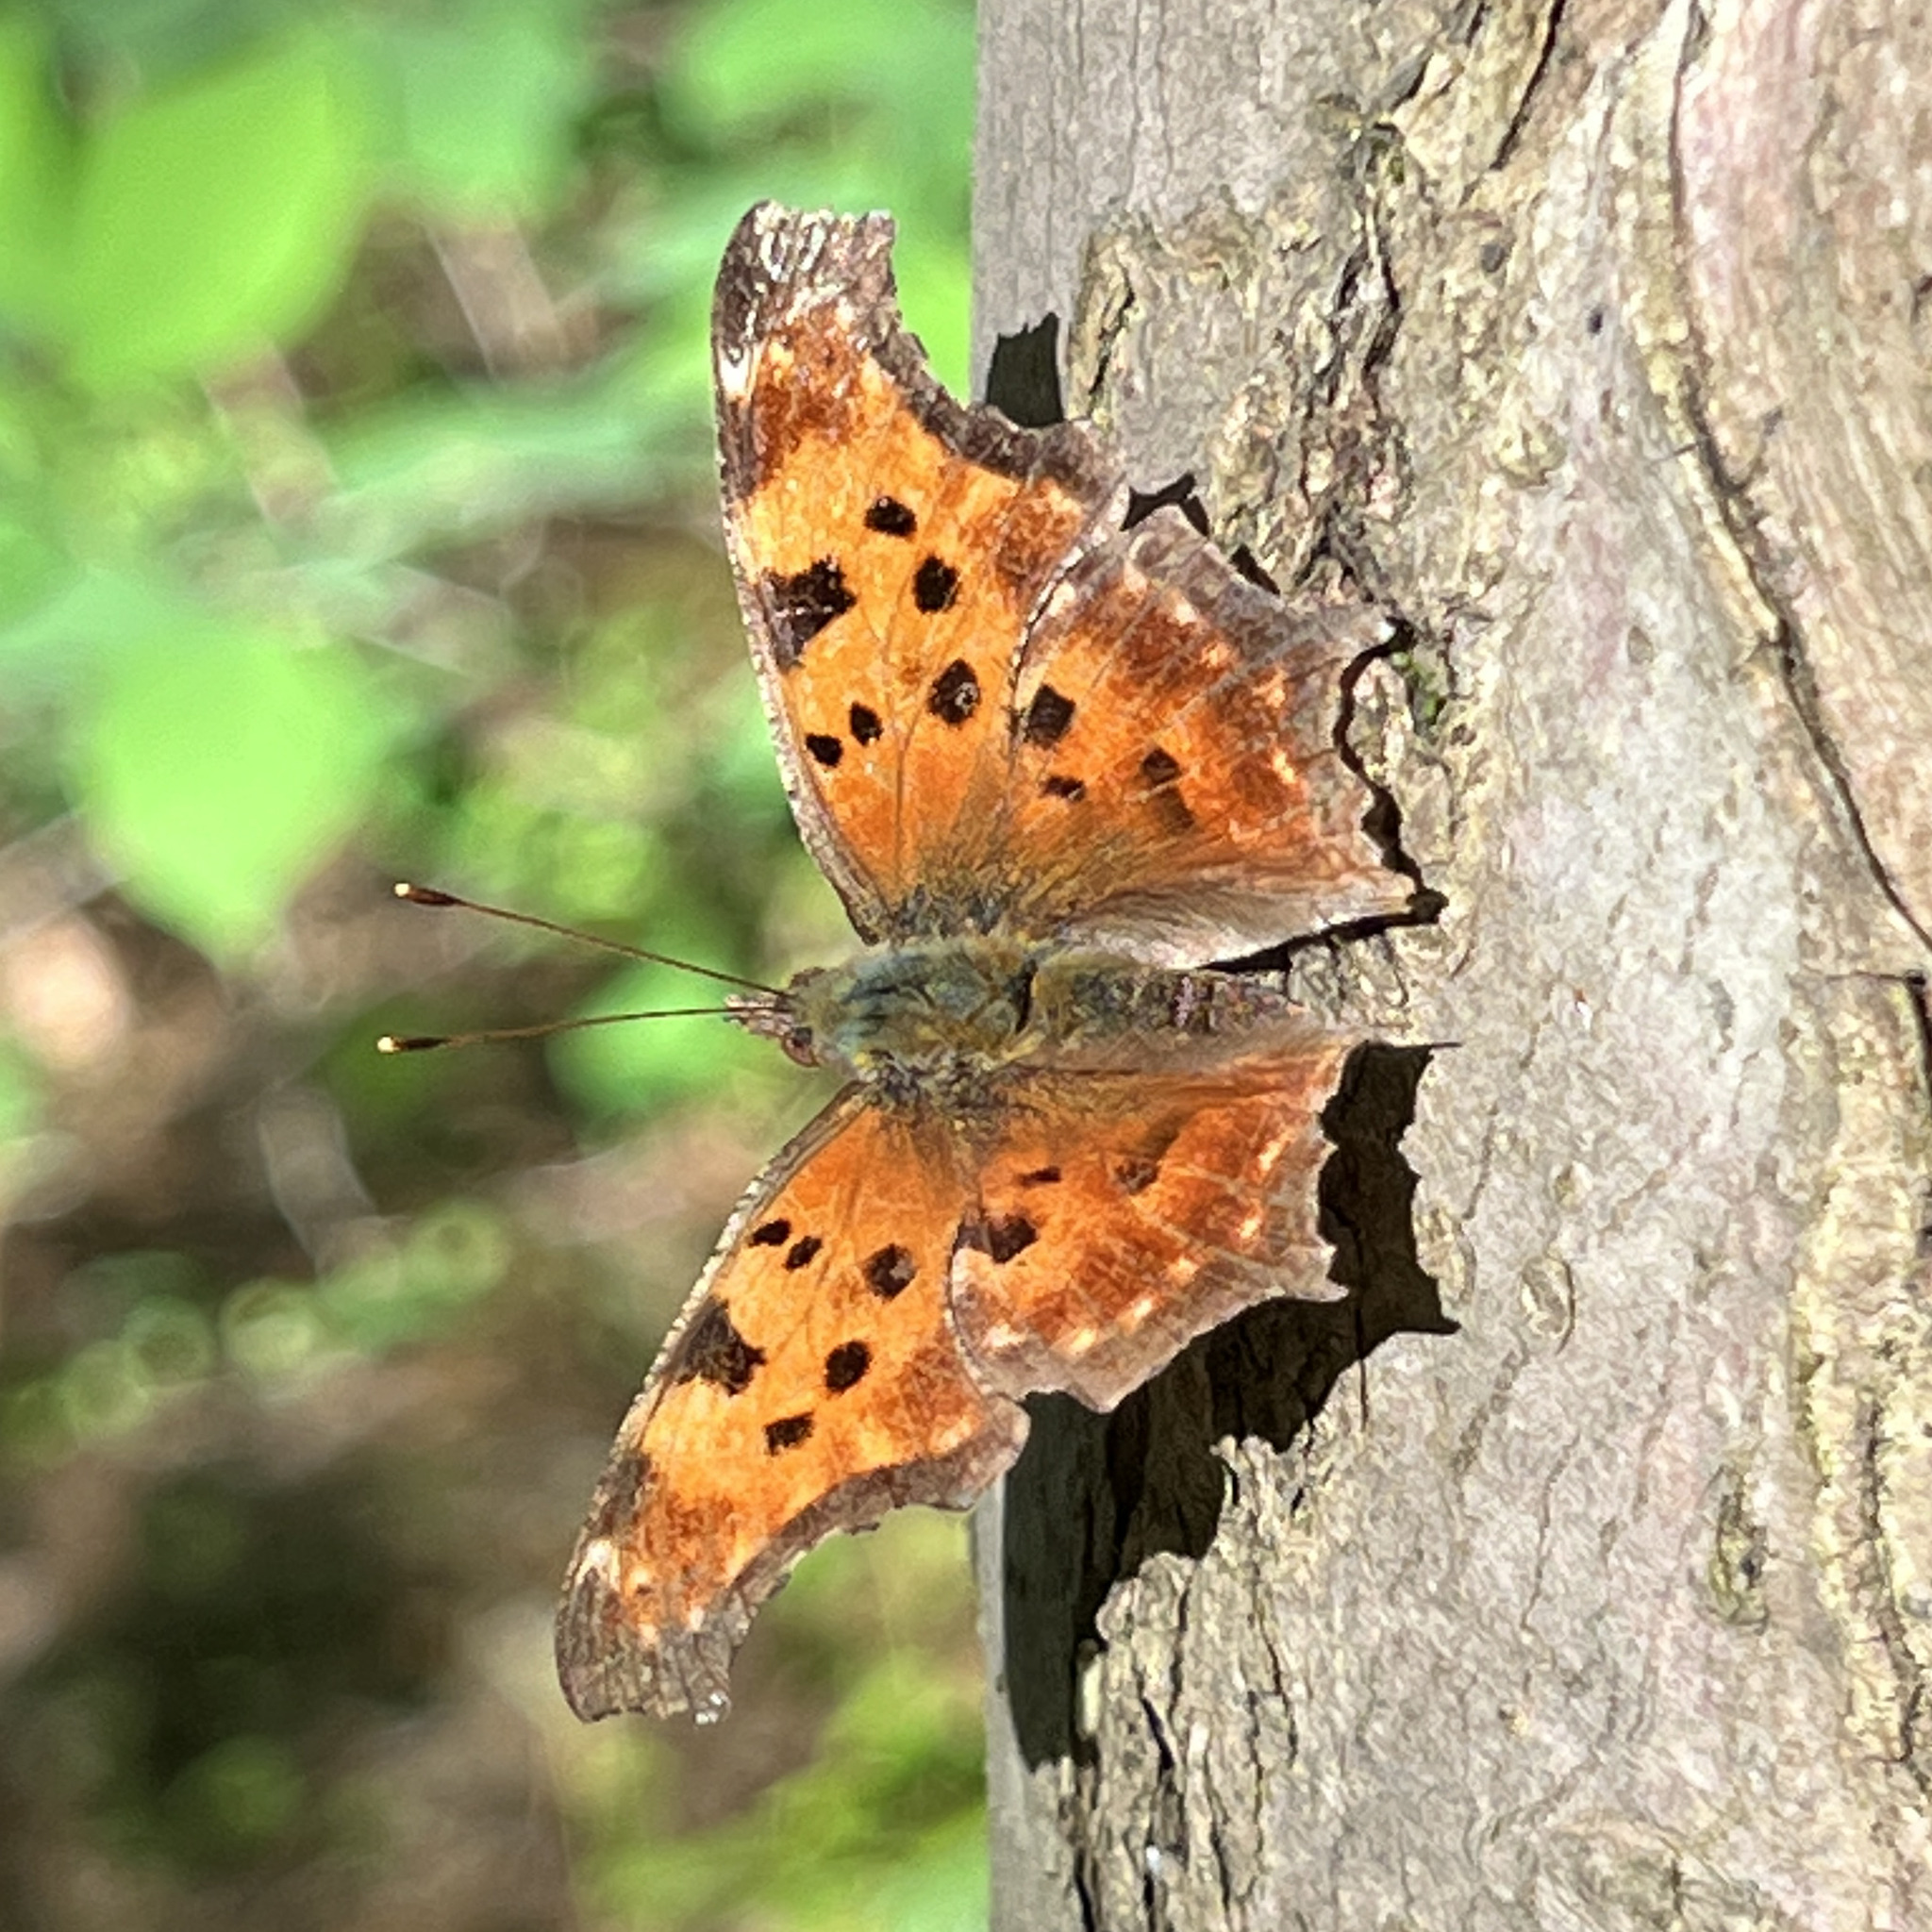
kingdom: Animalia
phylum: Arthropoda
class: Insecta
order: Lepidoptera
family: Nymphalidae
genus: Polygonia
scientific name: Polygonia comma
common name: Eastern comma
